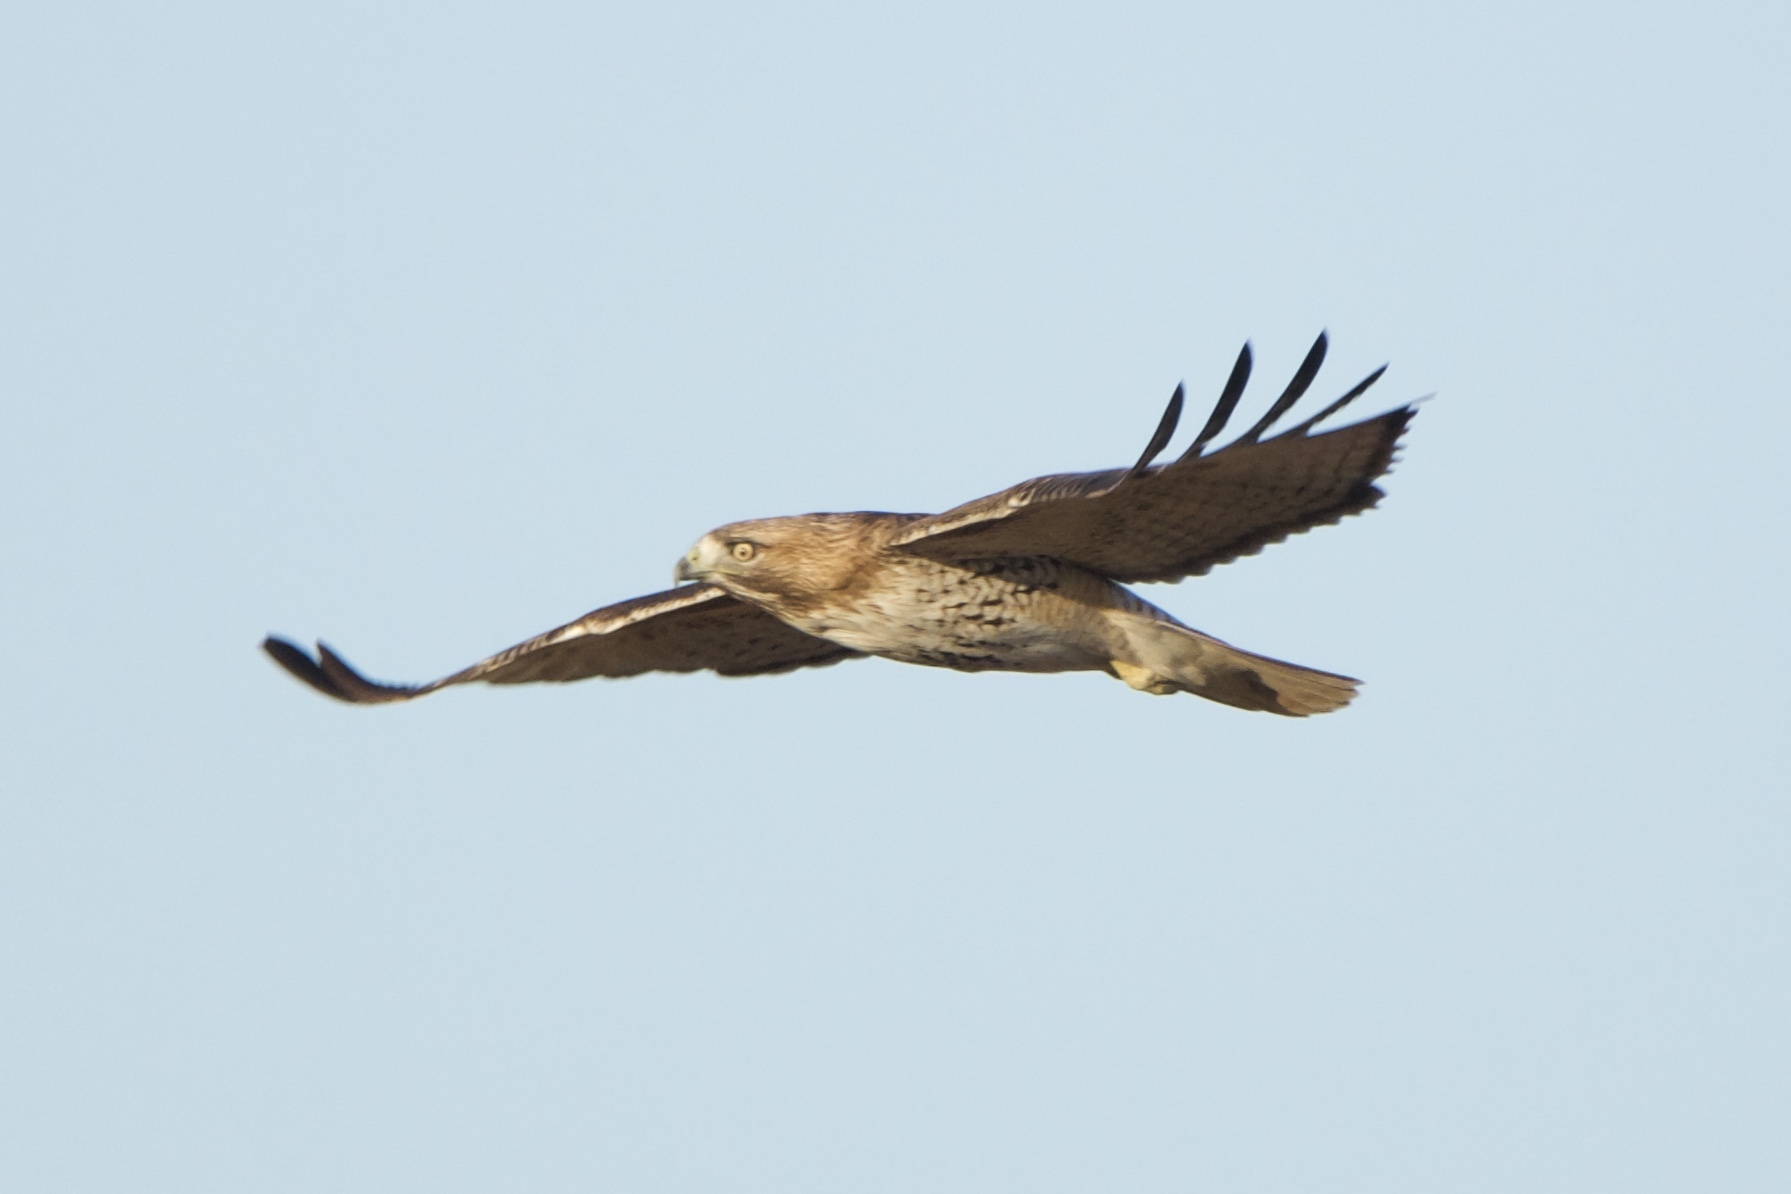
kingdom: Animalia
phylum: Chordata
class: Aves
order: Accipitriformes
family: Accipitridae
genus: Buteo
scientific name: Buteo jamaicensis
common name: Red-tailed hawk
